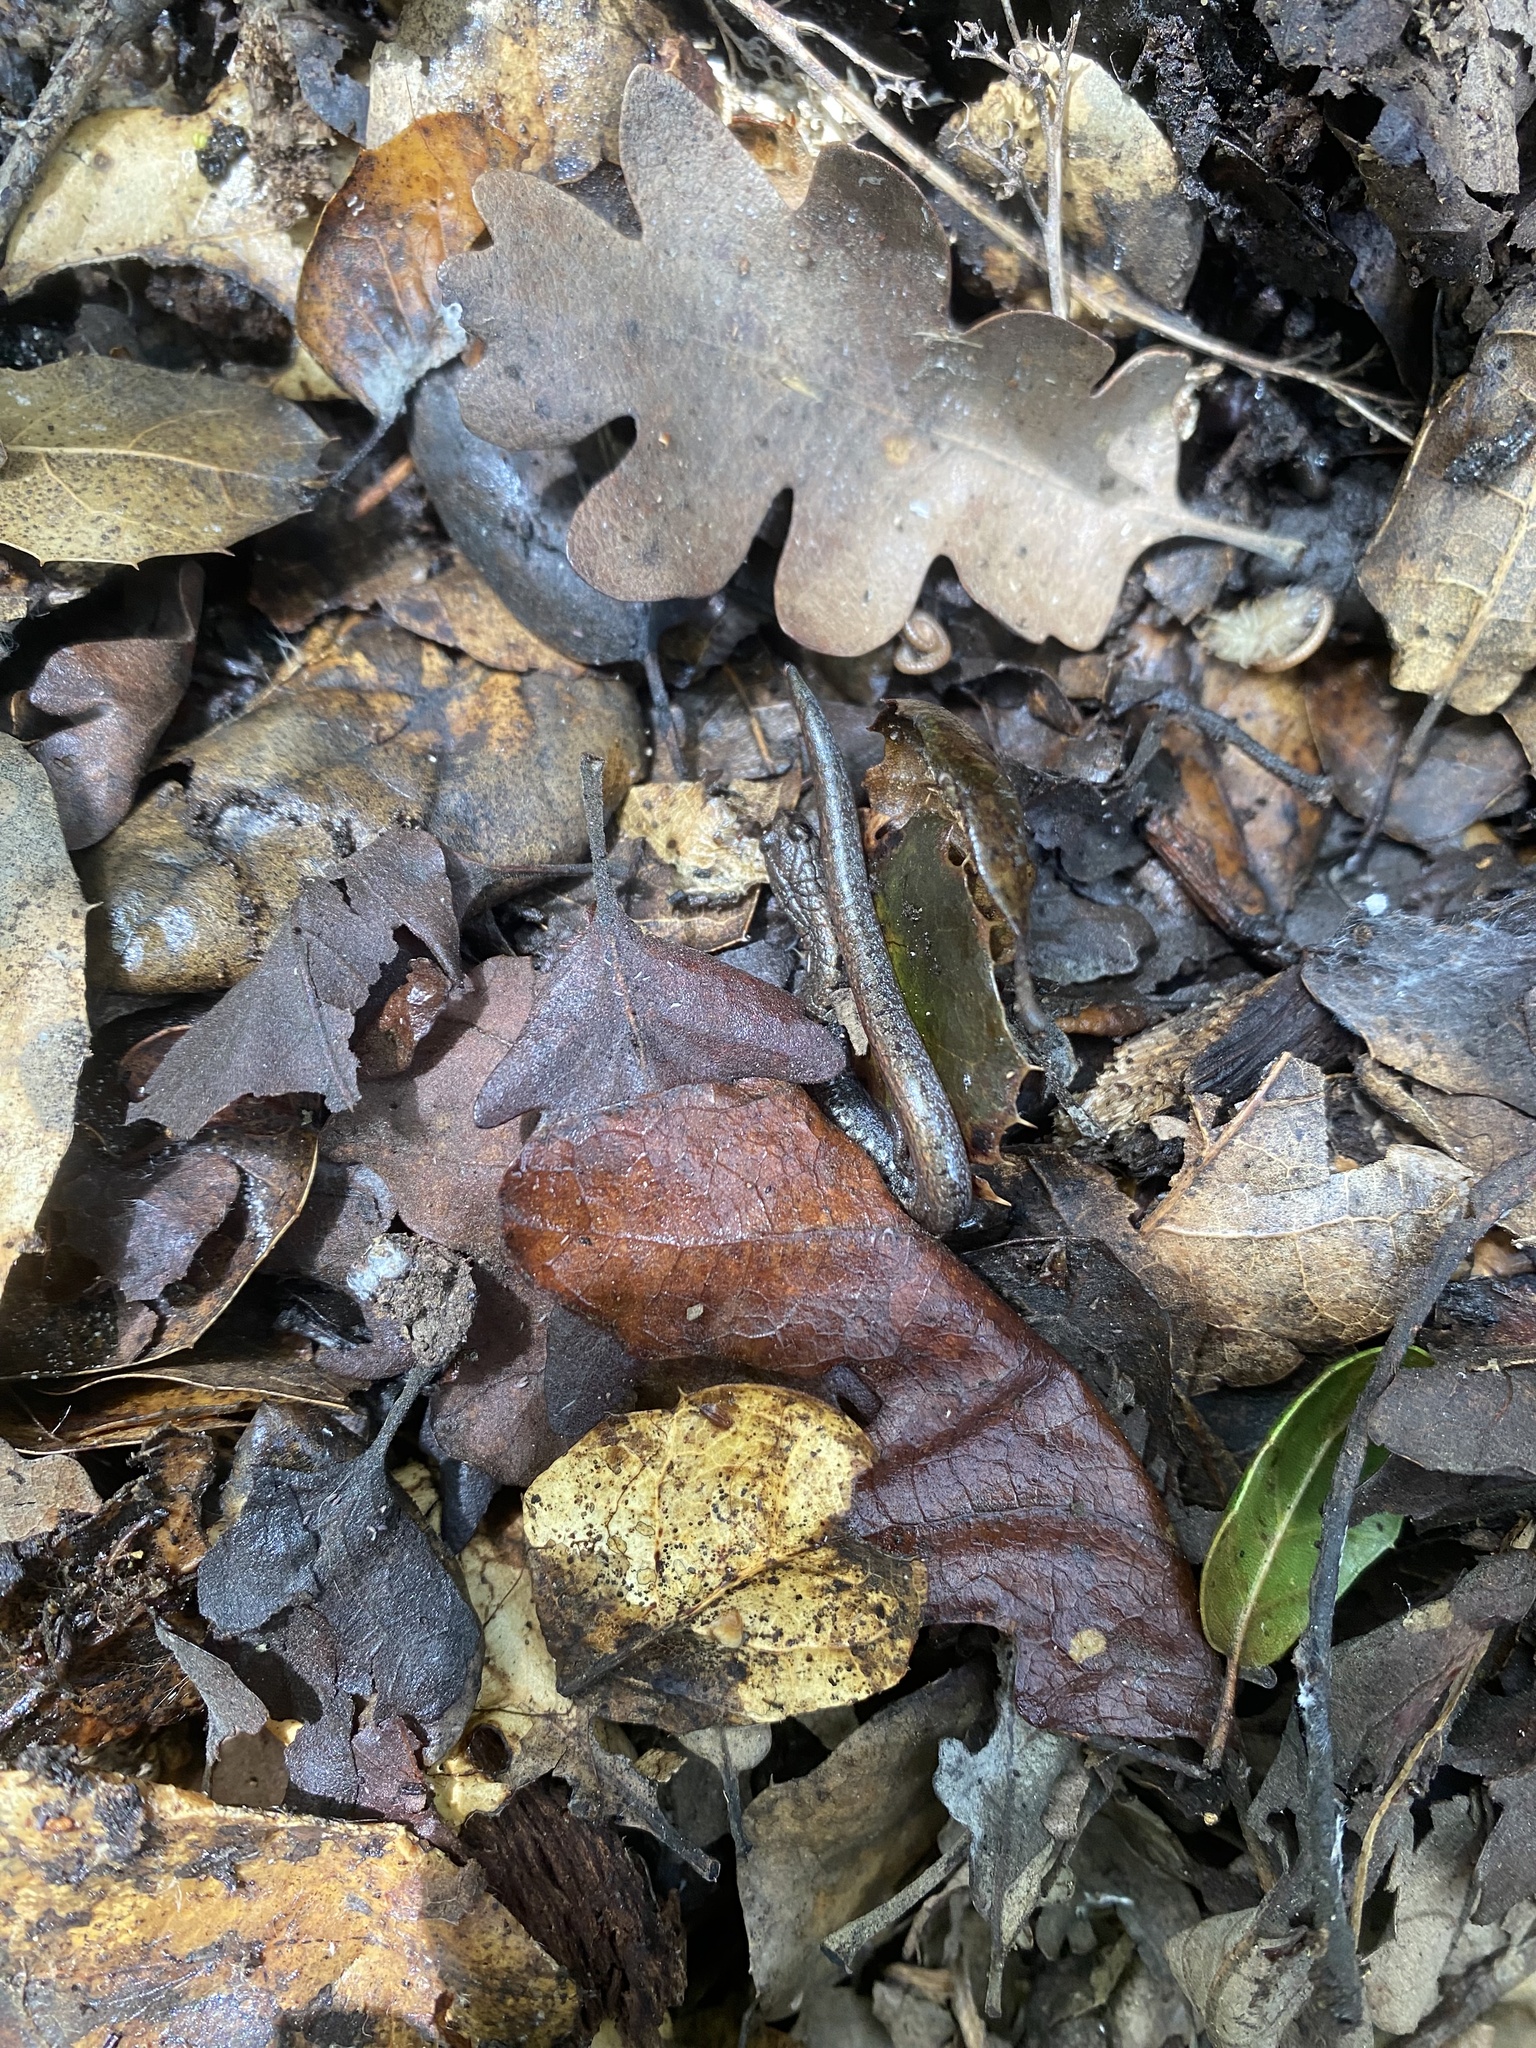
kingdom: Animalia
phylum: Chordata
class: Amphibia
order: Caudata
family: Plethodontidae
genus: Batrachoseps
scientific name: Batrachoseps attenuatus
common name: California slender salamander
